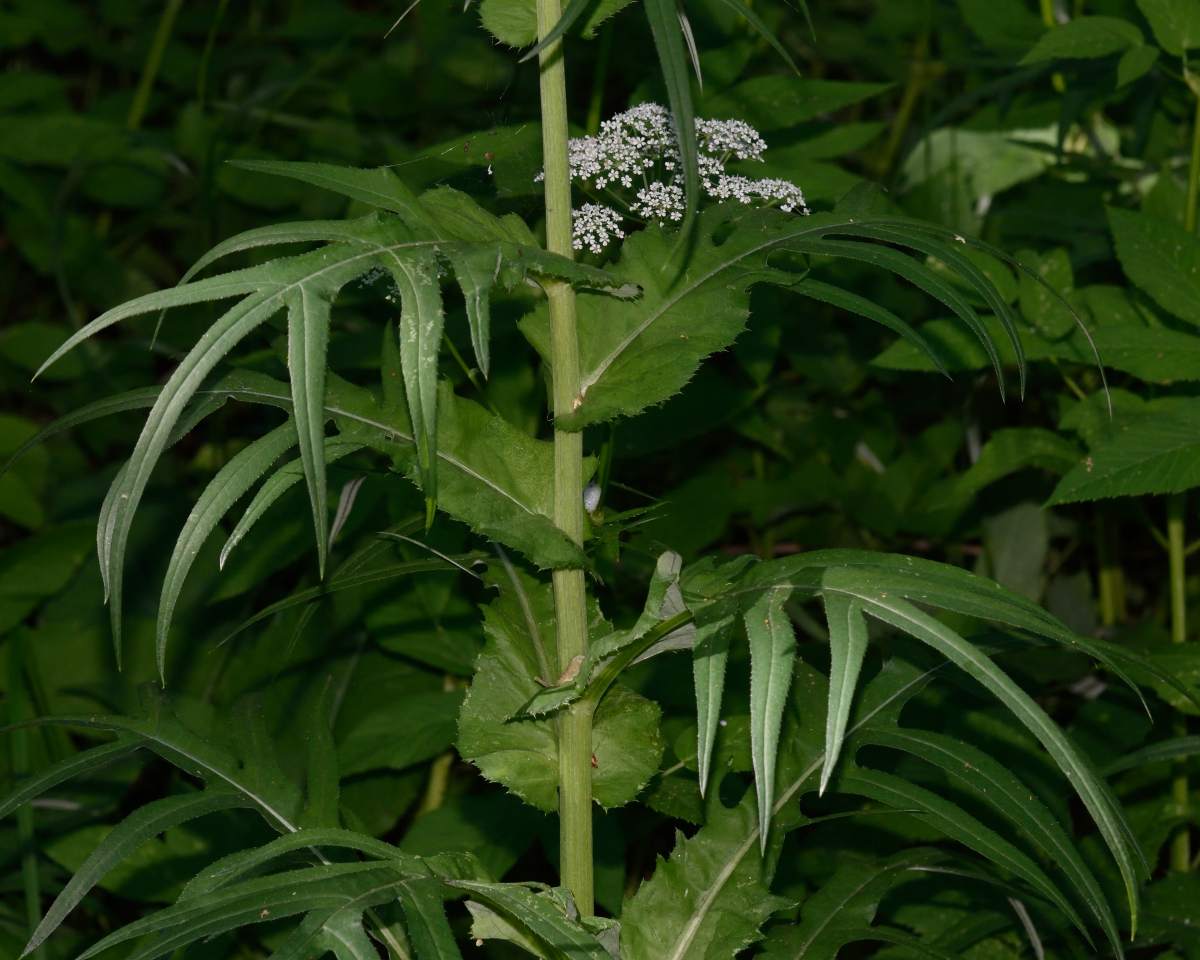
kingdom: Plantae
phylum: Tracheophyta
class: Magnoliopsida
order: Asterales
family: Asteraceae
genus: Cirsium
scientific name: Cirsium heterophyllum
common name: Melancholy thistle
